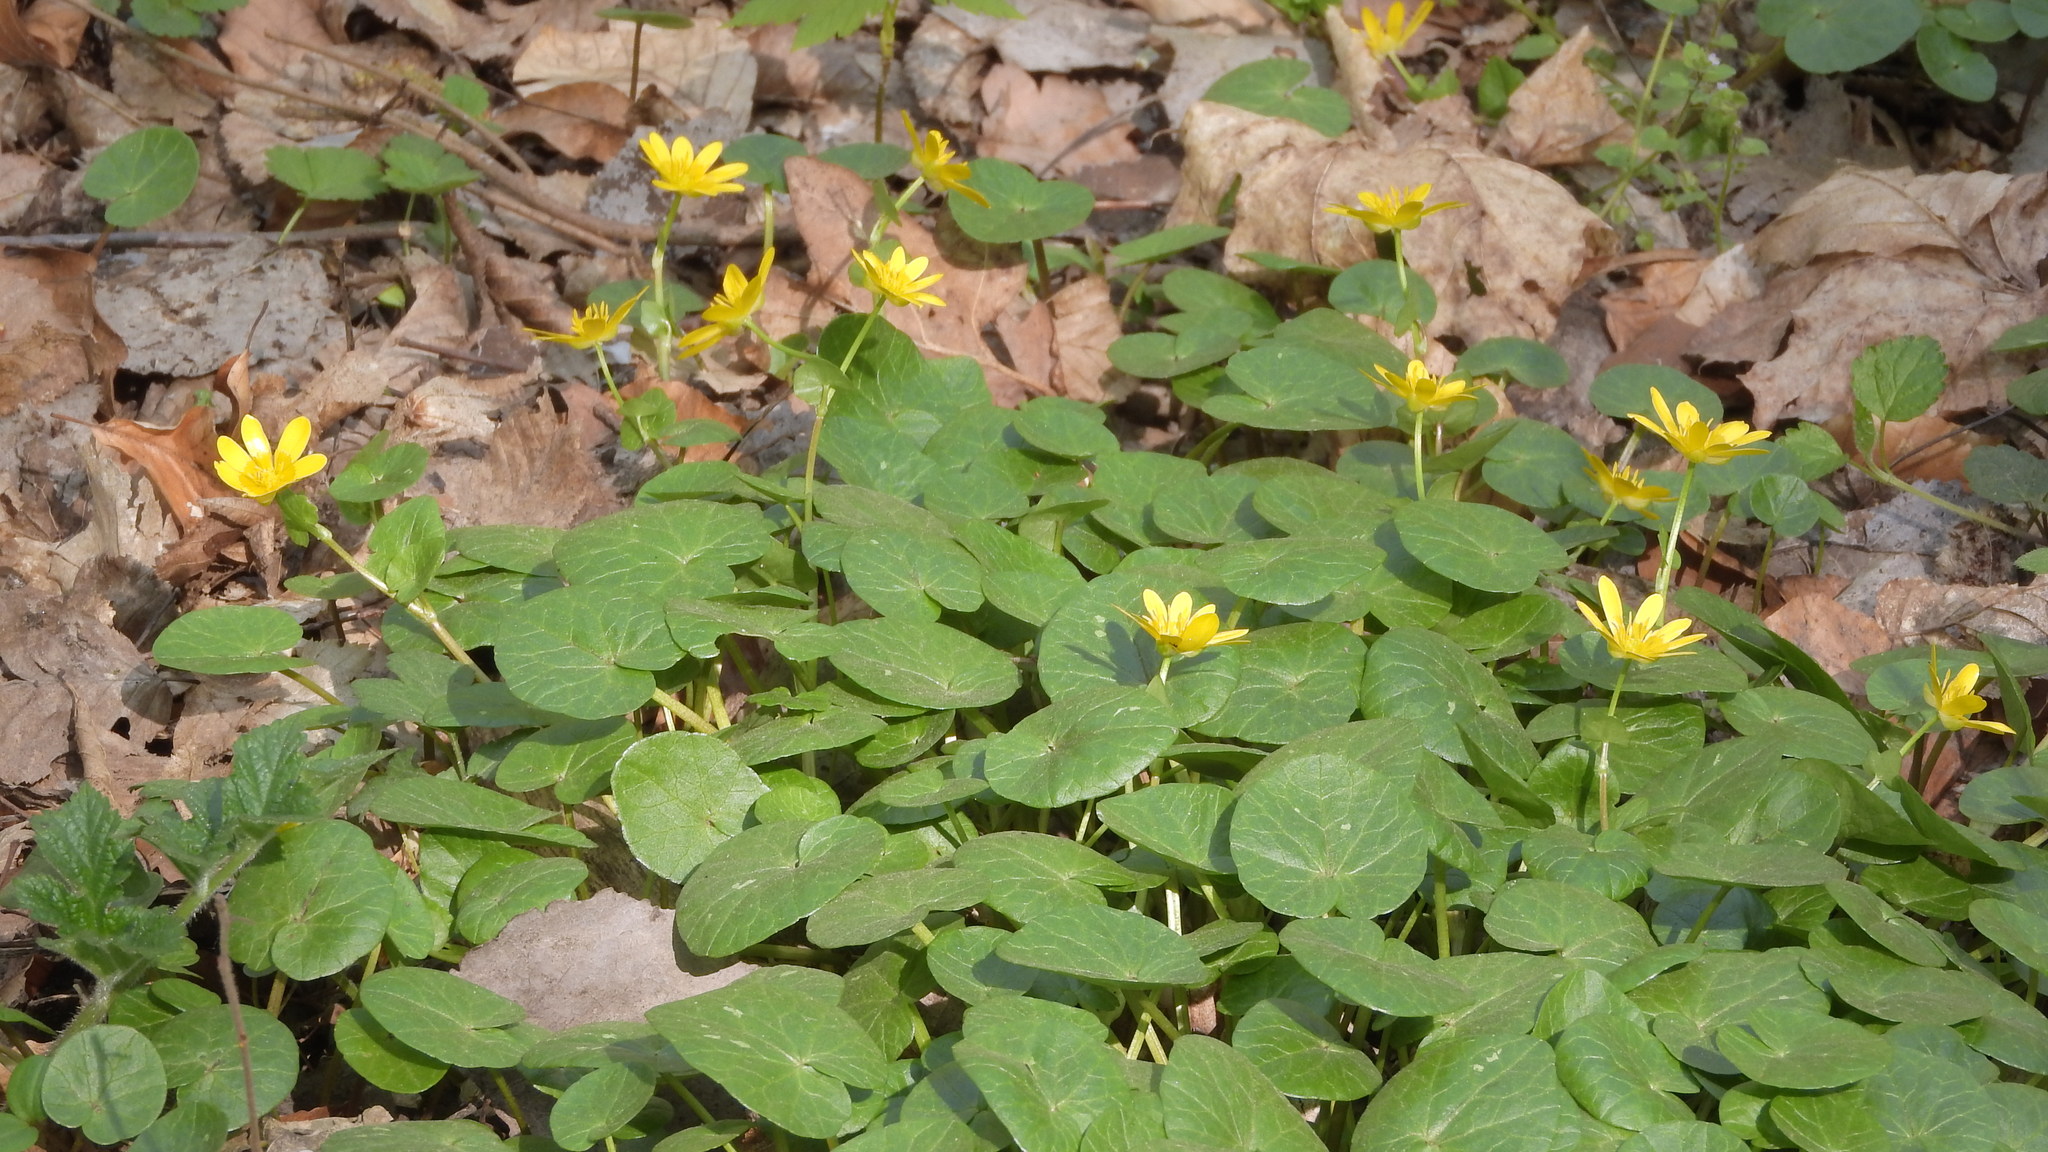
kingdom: Plantae
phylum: Tracheophyta
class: Magnoliopsida
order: Ranunculales
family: Ranunculaceae
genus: Ficaria
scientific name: Ficaria verna
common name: Lesser celandine
